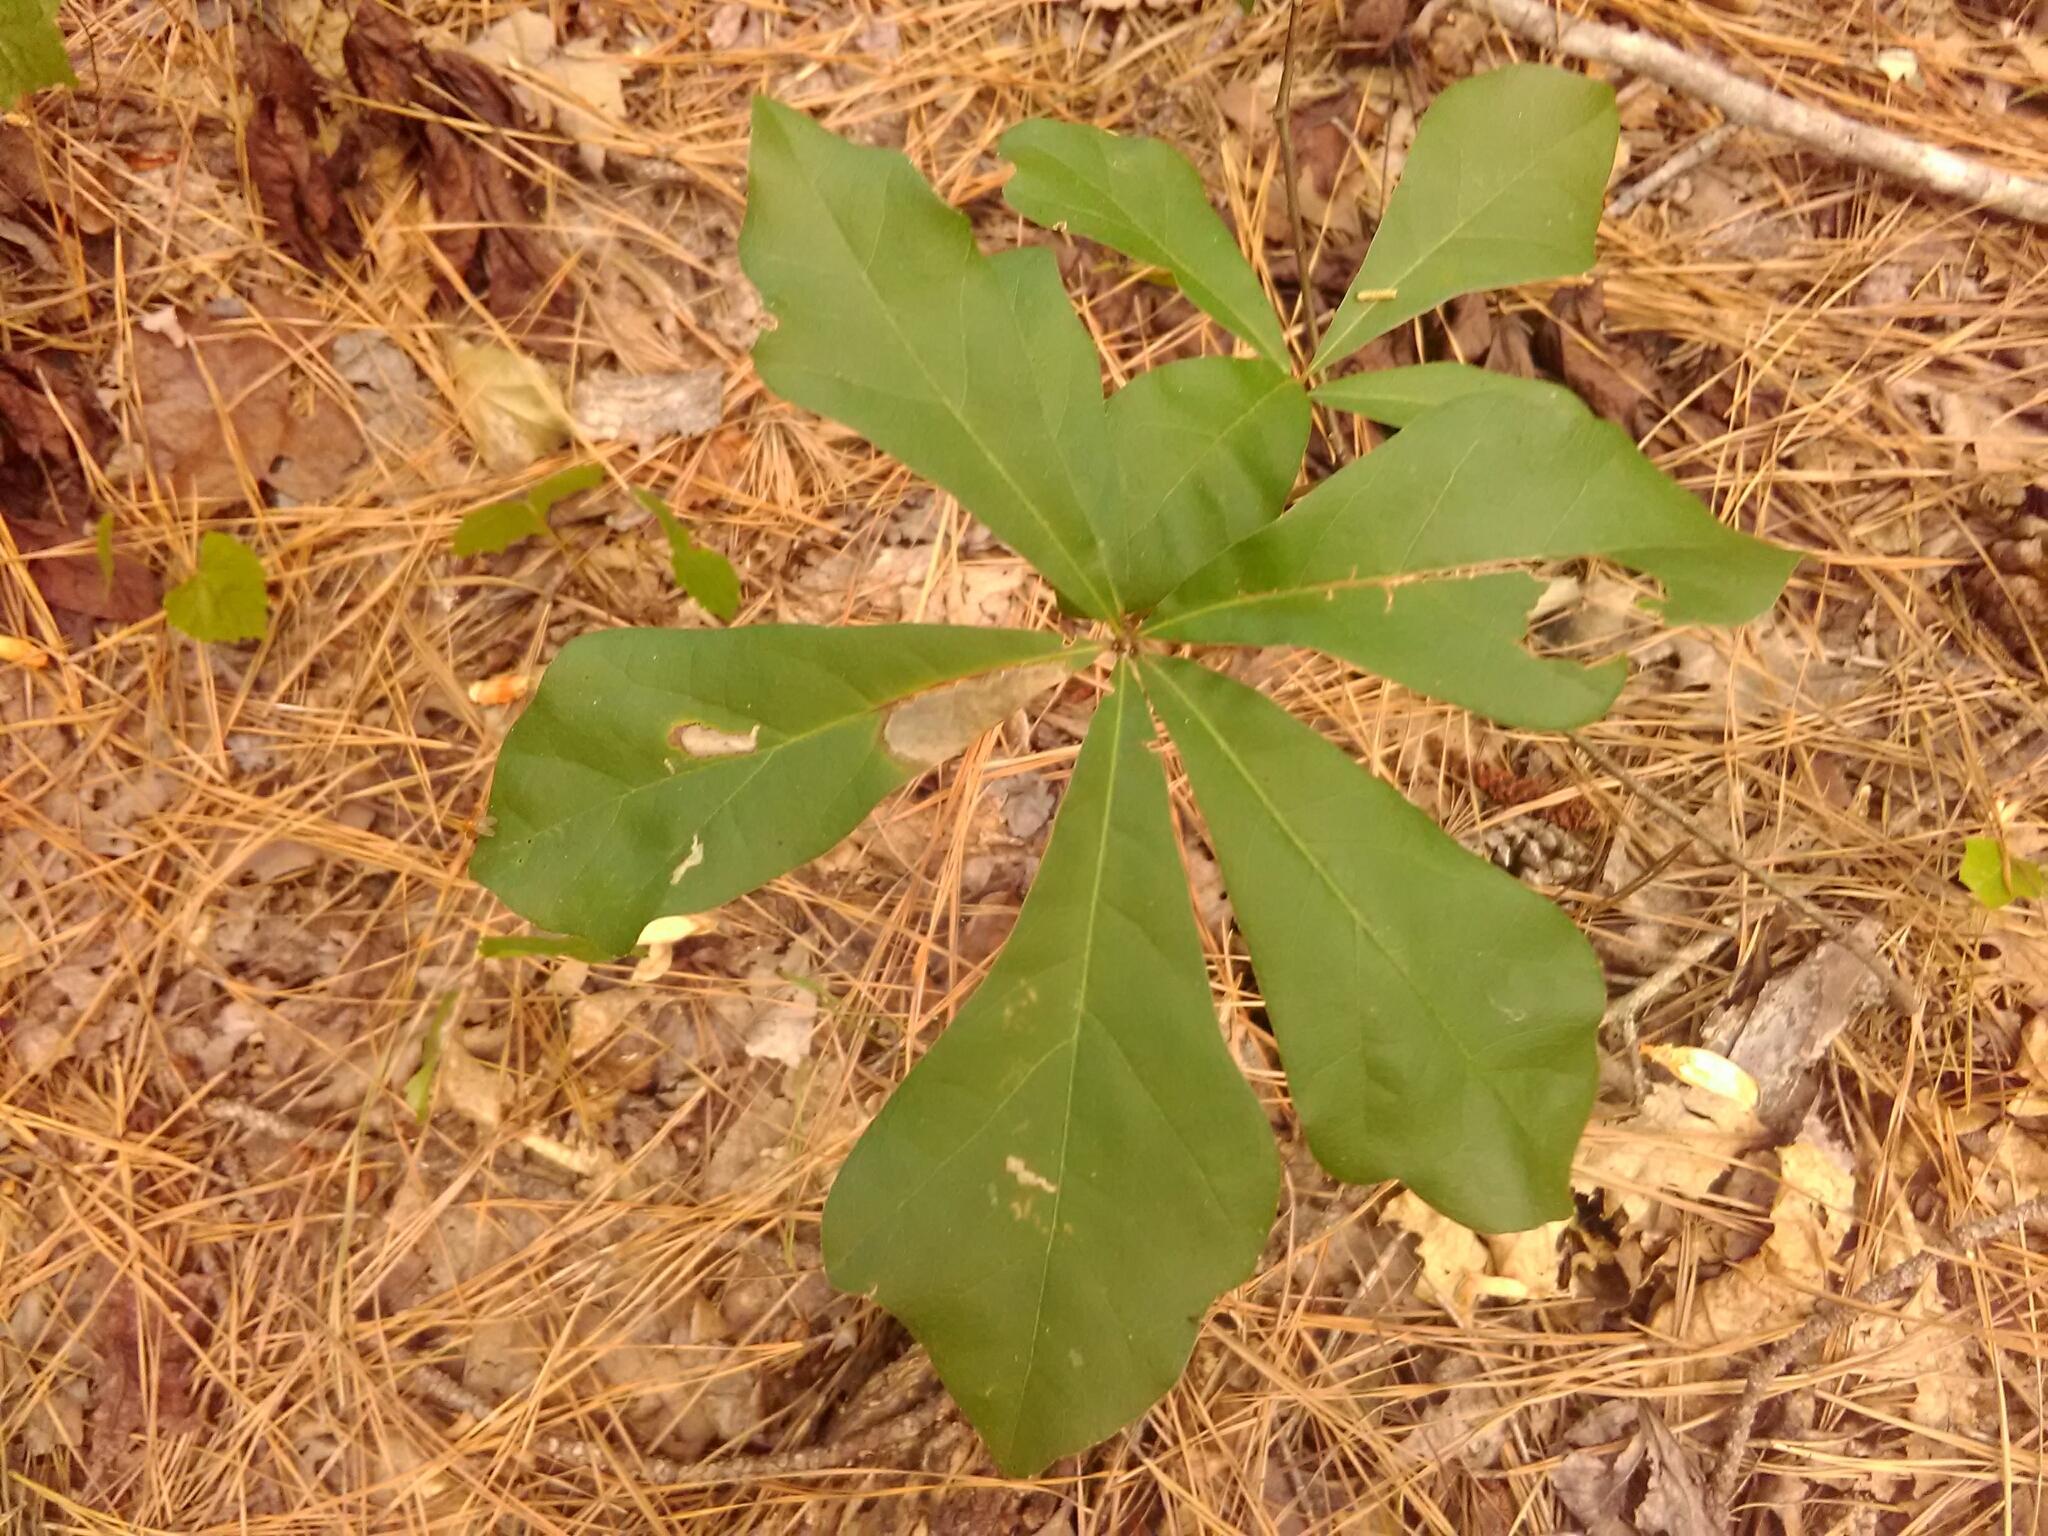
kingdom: Plantae
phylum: Tracheophyta
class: Magnoliopsida
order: Fagales
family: Fagaceae
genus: Quercus
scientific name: Quercus nigra
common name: Water oak
